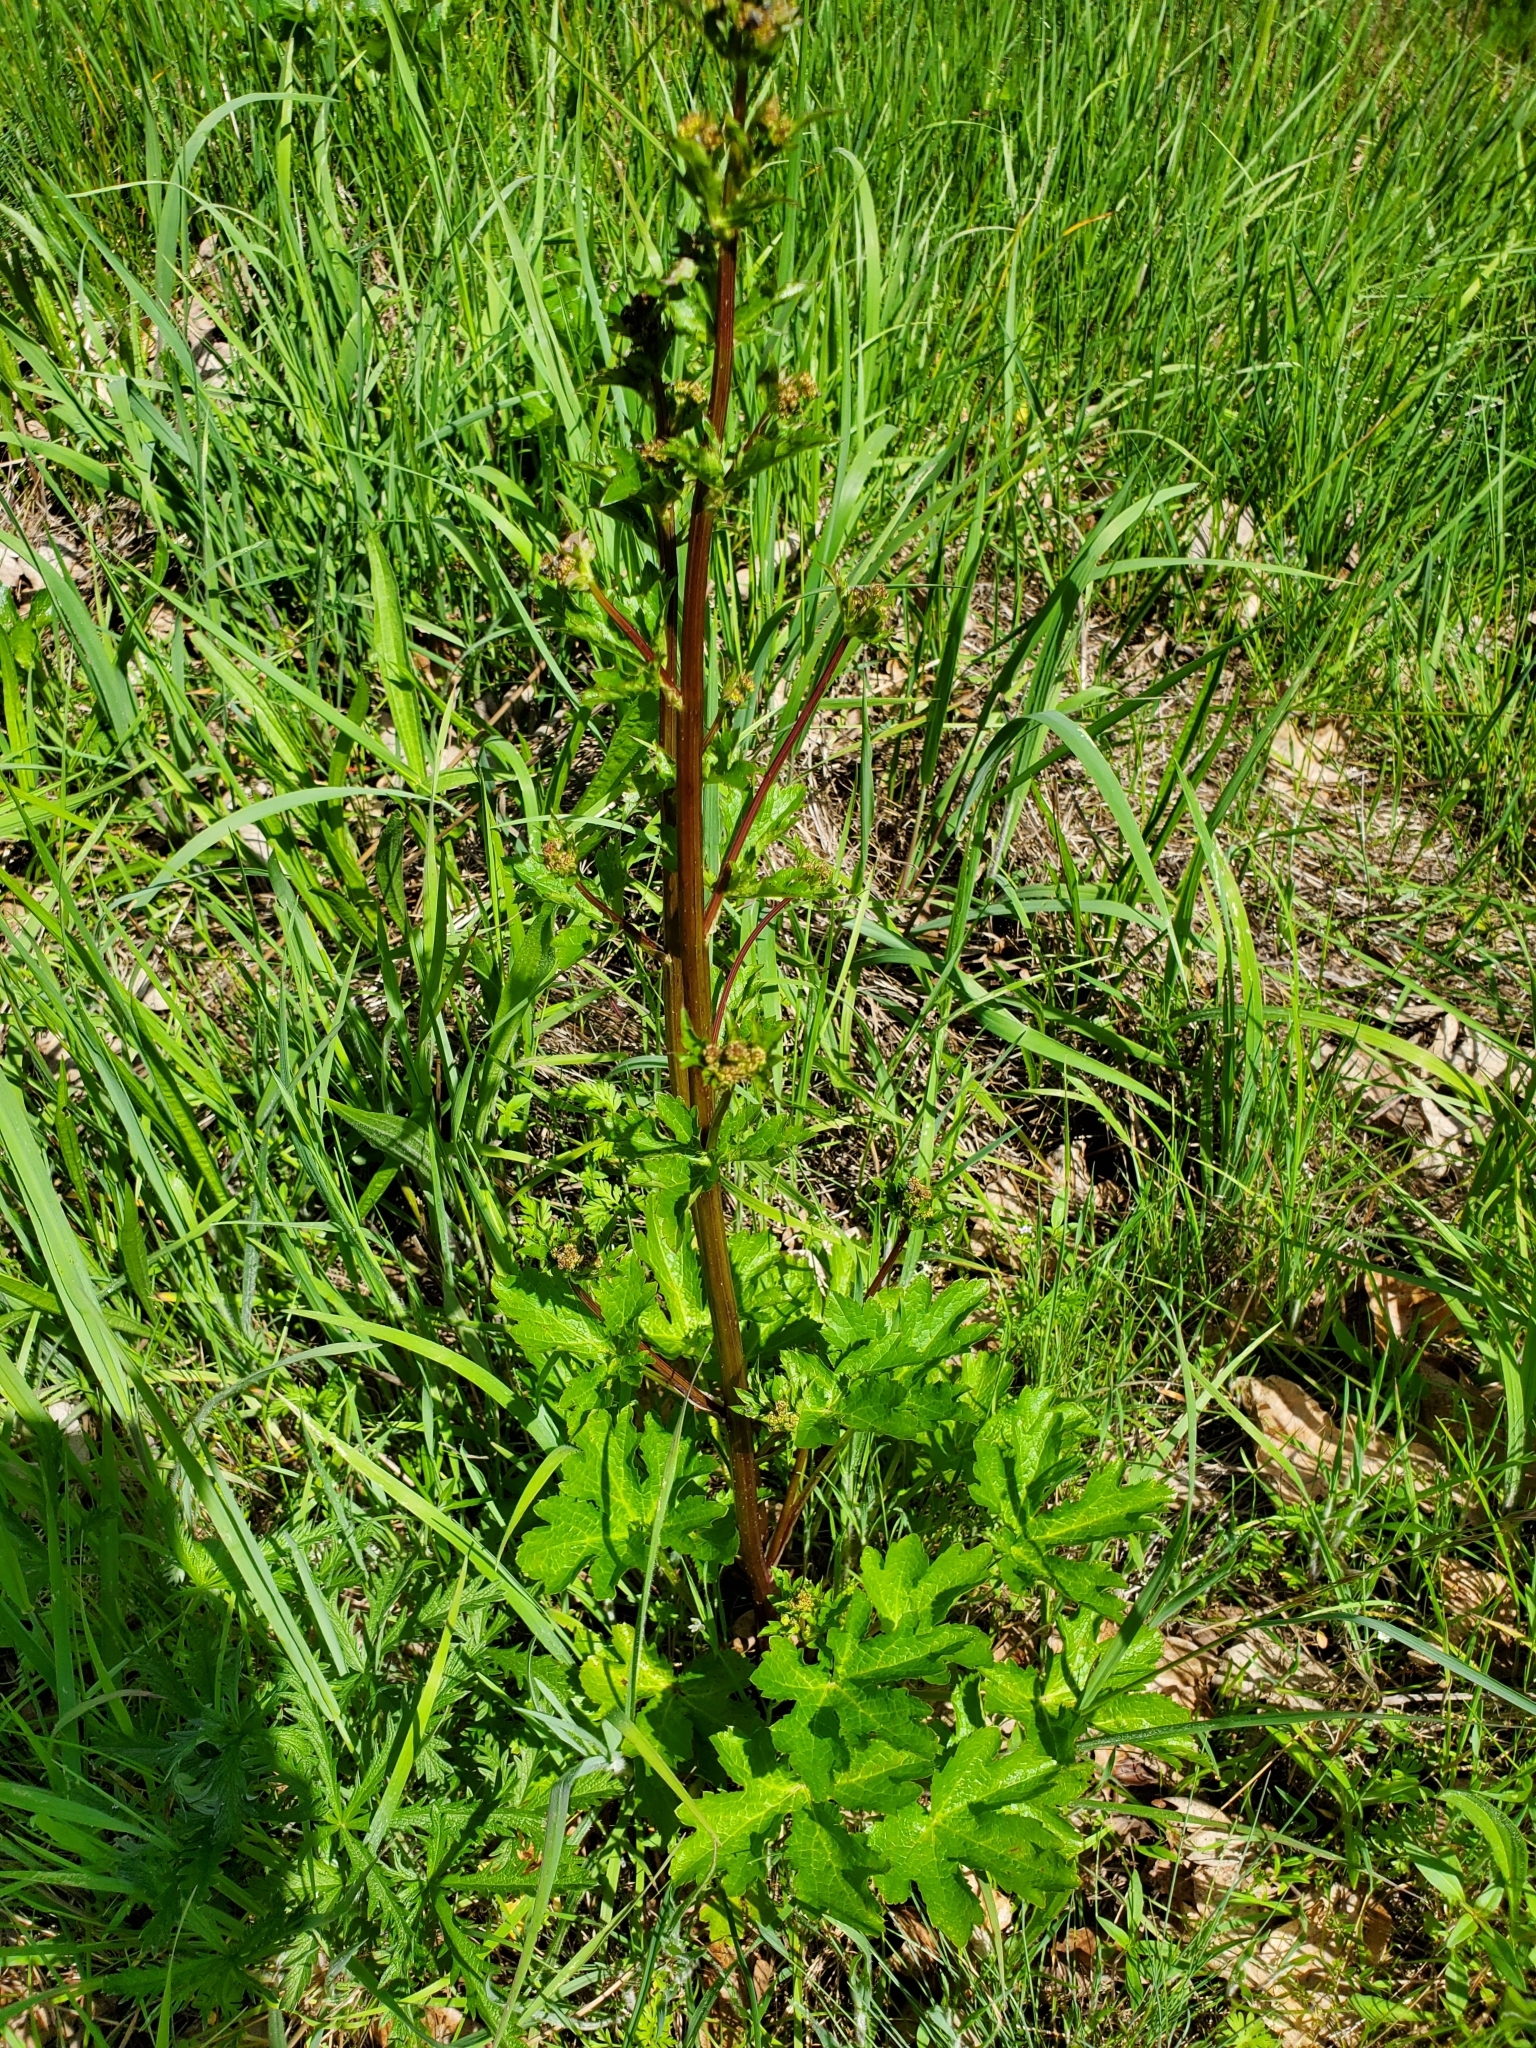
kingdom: Plantae
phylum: Tracheophyta
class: Magnoliopsida
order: Apiales
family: Apiaceae
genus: Sanicula
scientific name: Sanicula crassicaulis
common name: Western snakeroot
